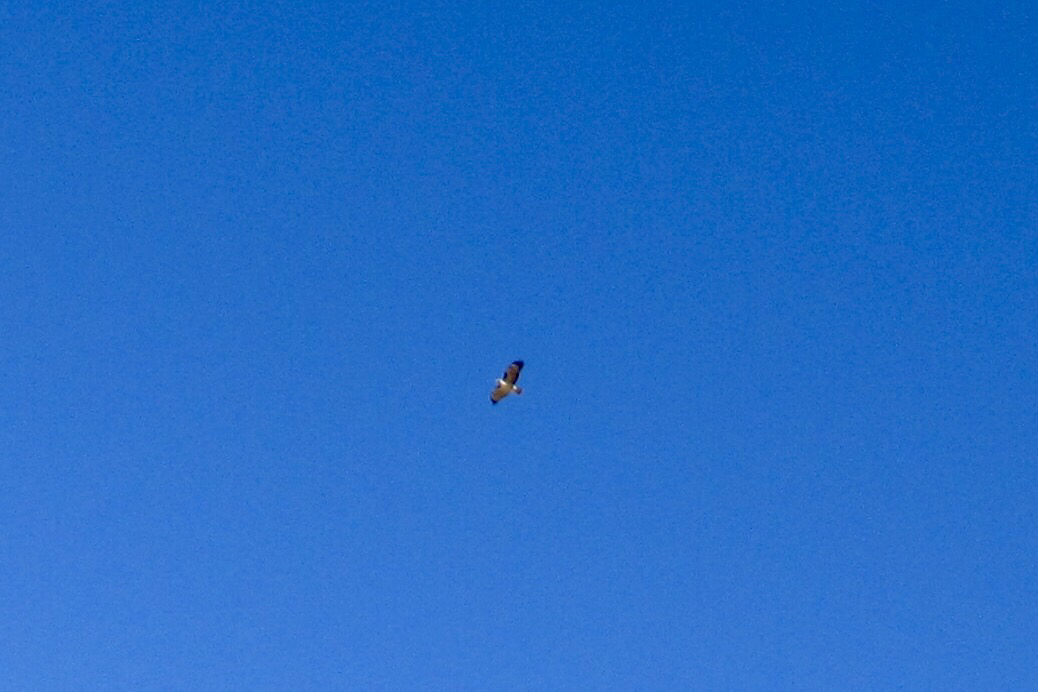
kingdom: Animalia
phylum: Chordata
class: Aves
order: Accipitriformes
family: Accipitridae
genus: Buteo
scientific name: Buteo jamaicensis
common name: Red-tailed hawk
